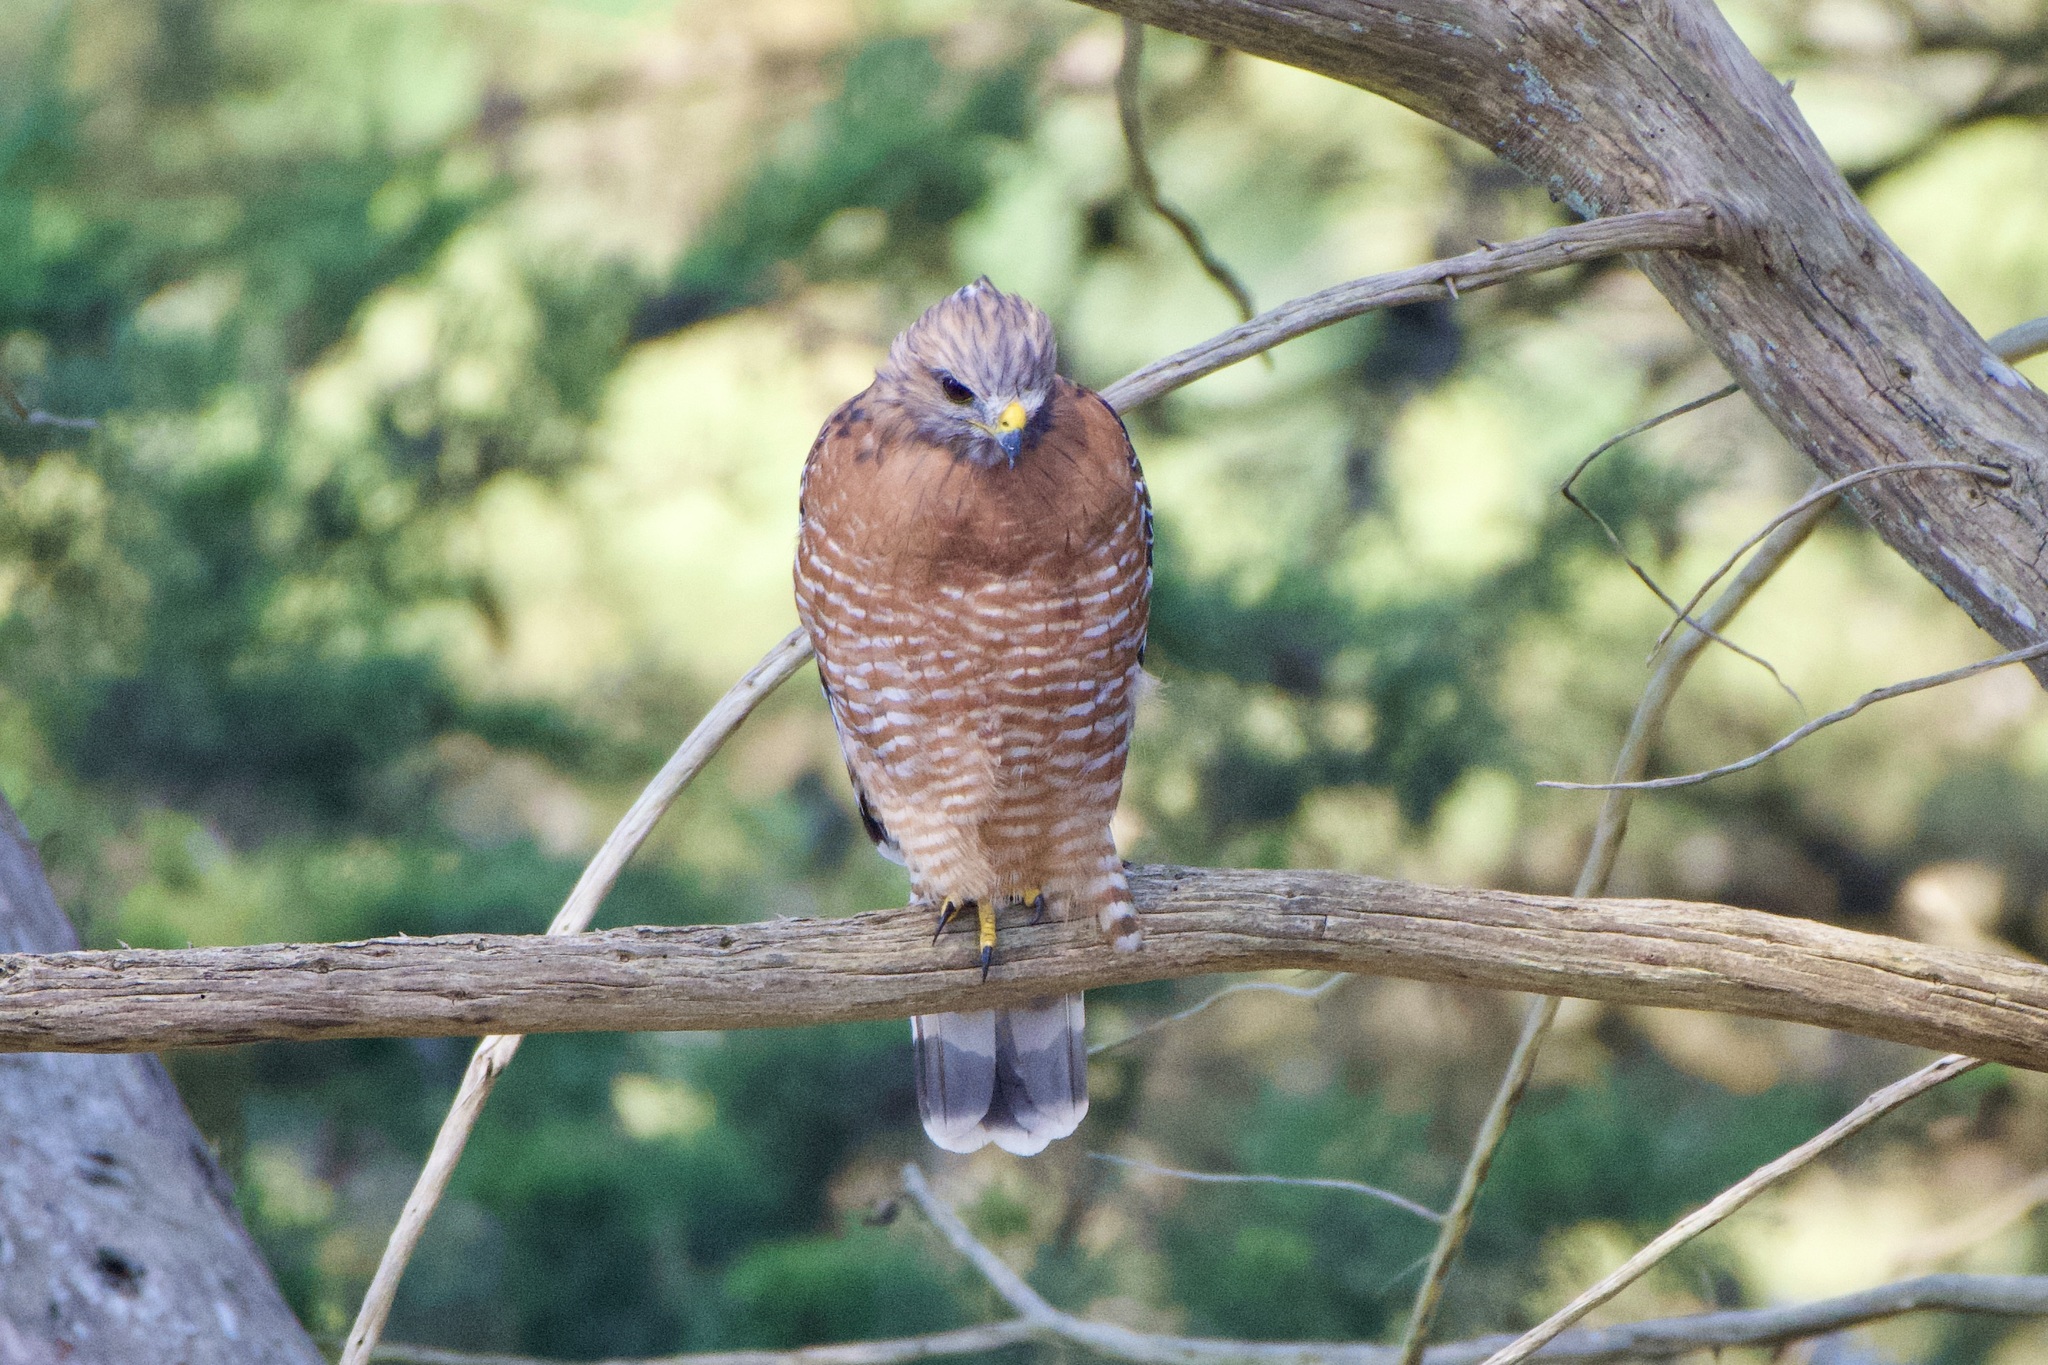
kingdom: Animalia
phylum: Chordata
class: Aves
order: Accipitriformes
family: Accipitridae
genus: Buteo
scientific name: Buteo lineatus
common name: Red-shouldered hawk
